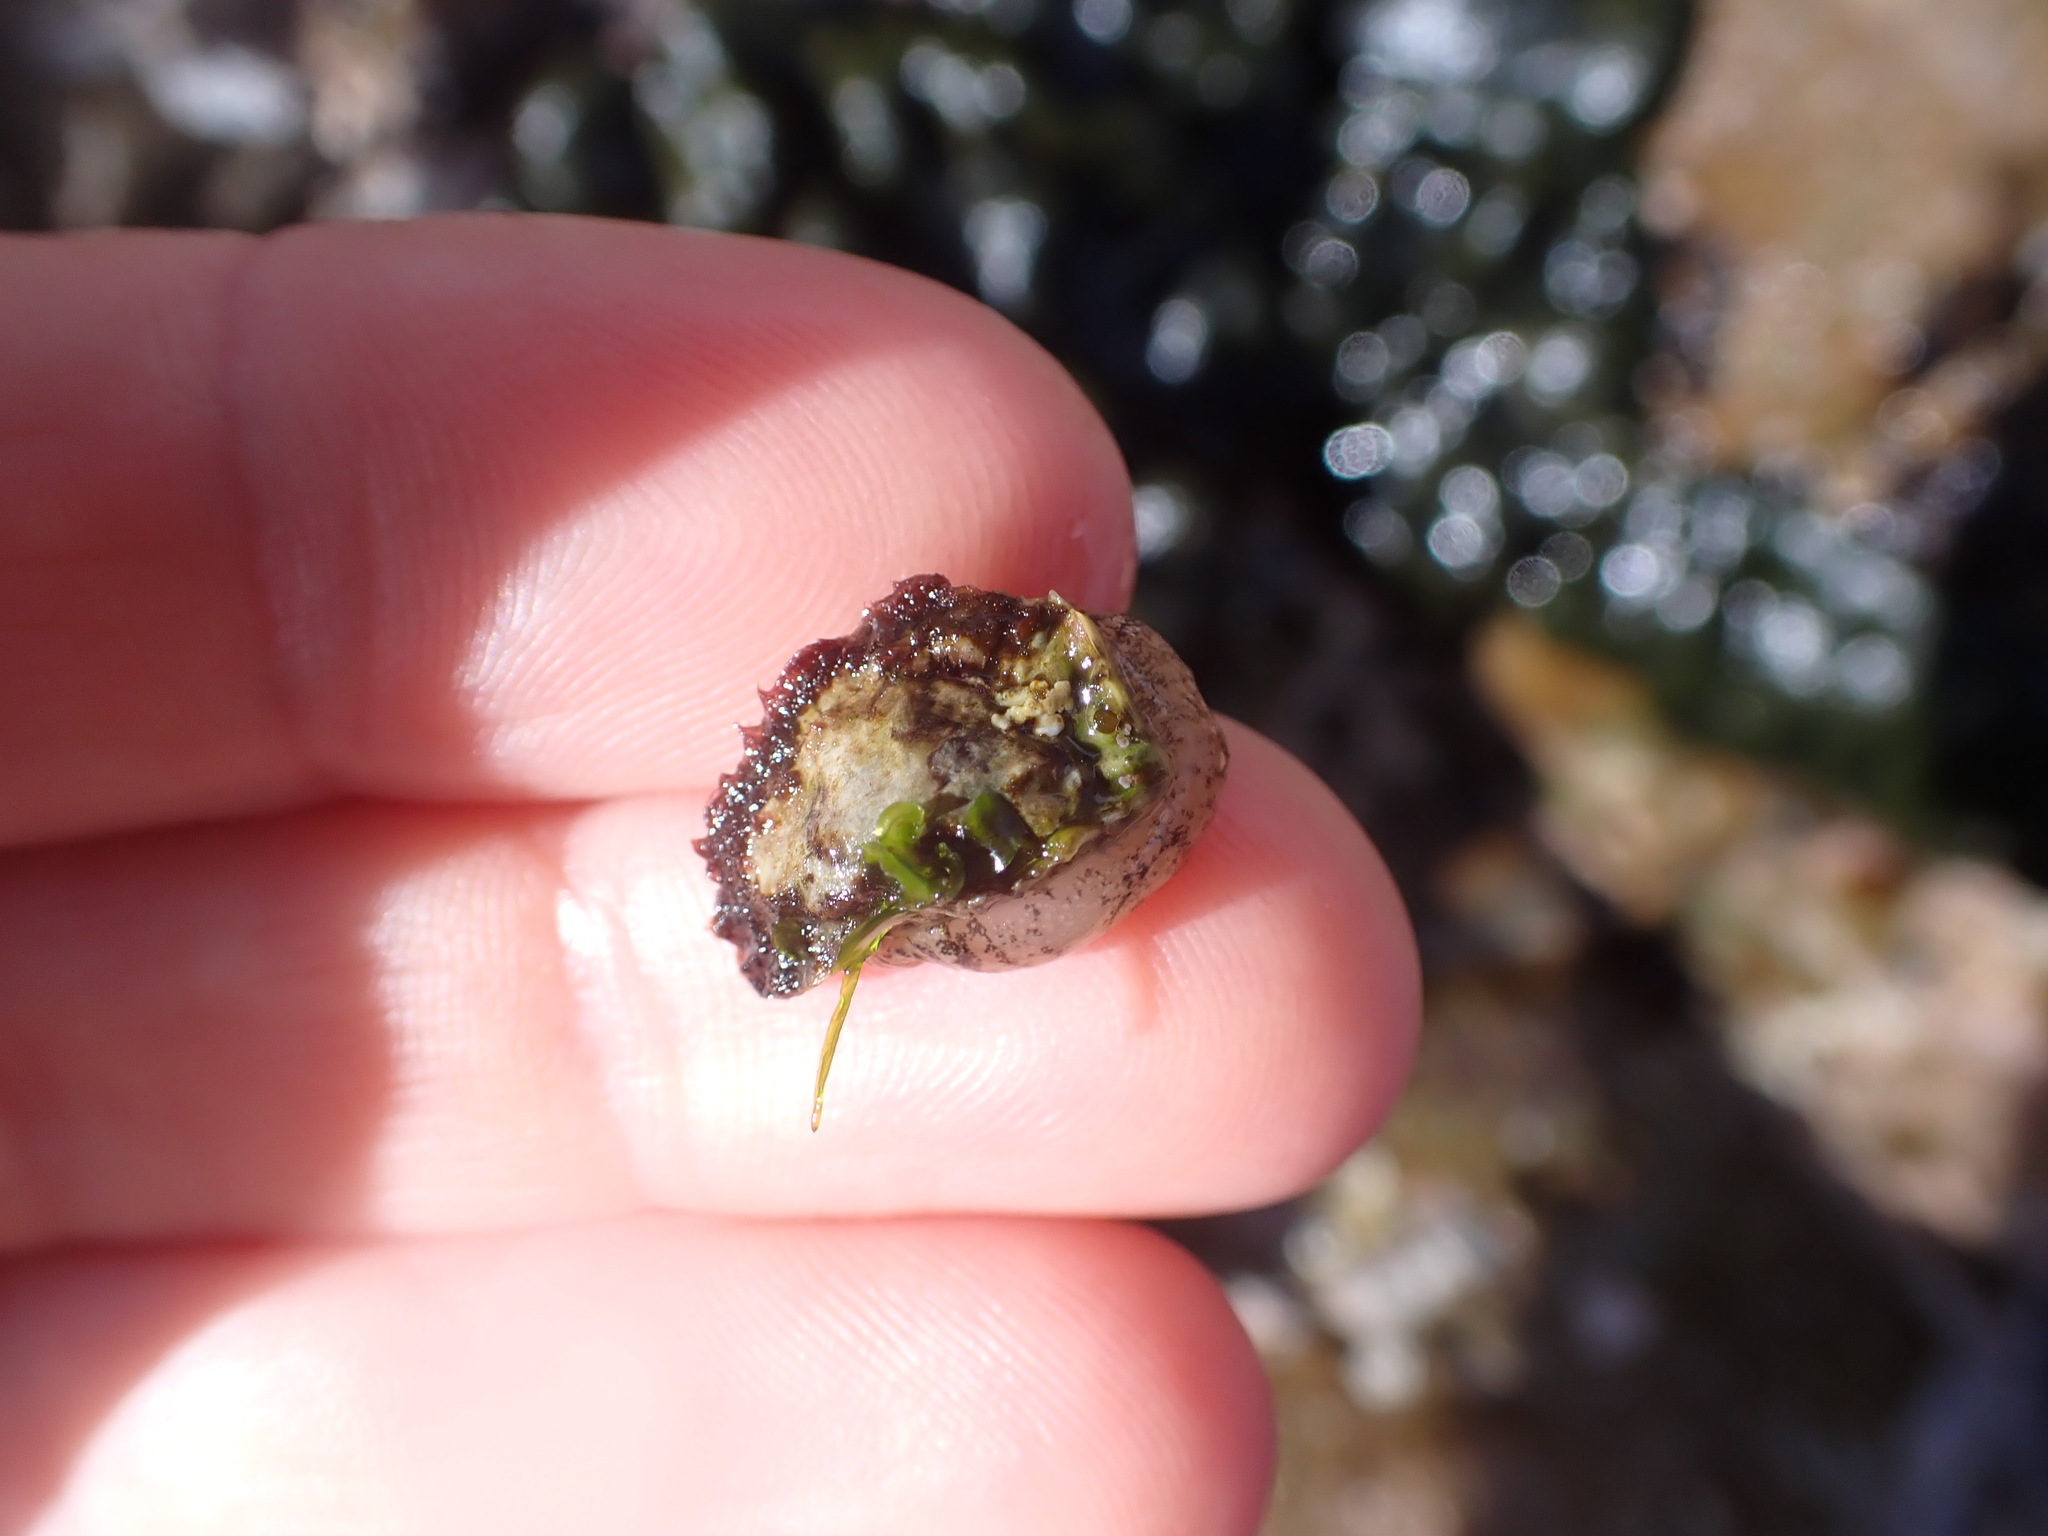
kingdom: Animalia
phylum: Mollusca
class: Gastropoda
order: Siphonariida
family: Siphonariidae
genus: Siphonaria
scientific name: Siphonaria australis
